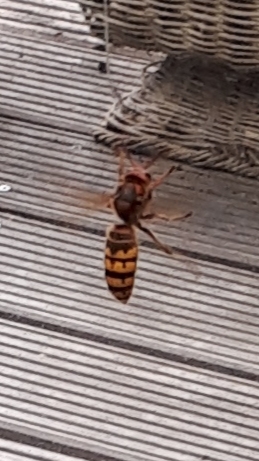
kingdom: Animalia
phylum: Arthropoda
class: Insecta
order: Hymenoptera
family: Vespidae
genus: Vespa
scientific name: Vespa crabro
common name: Hornet
